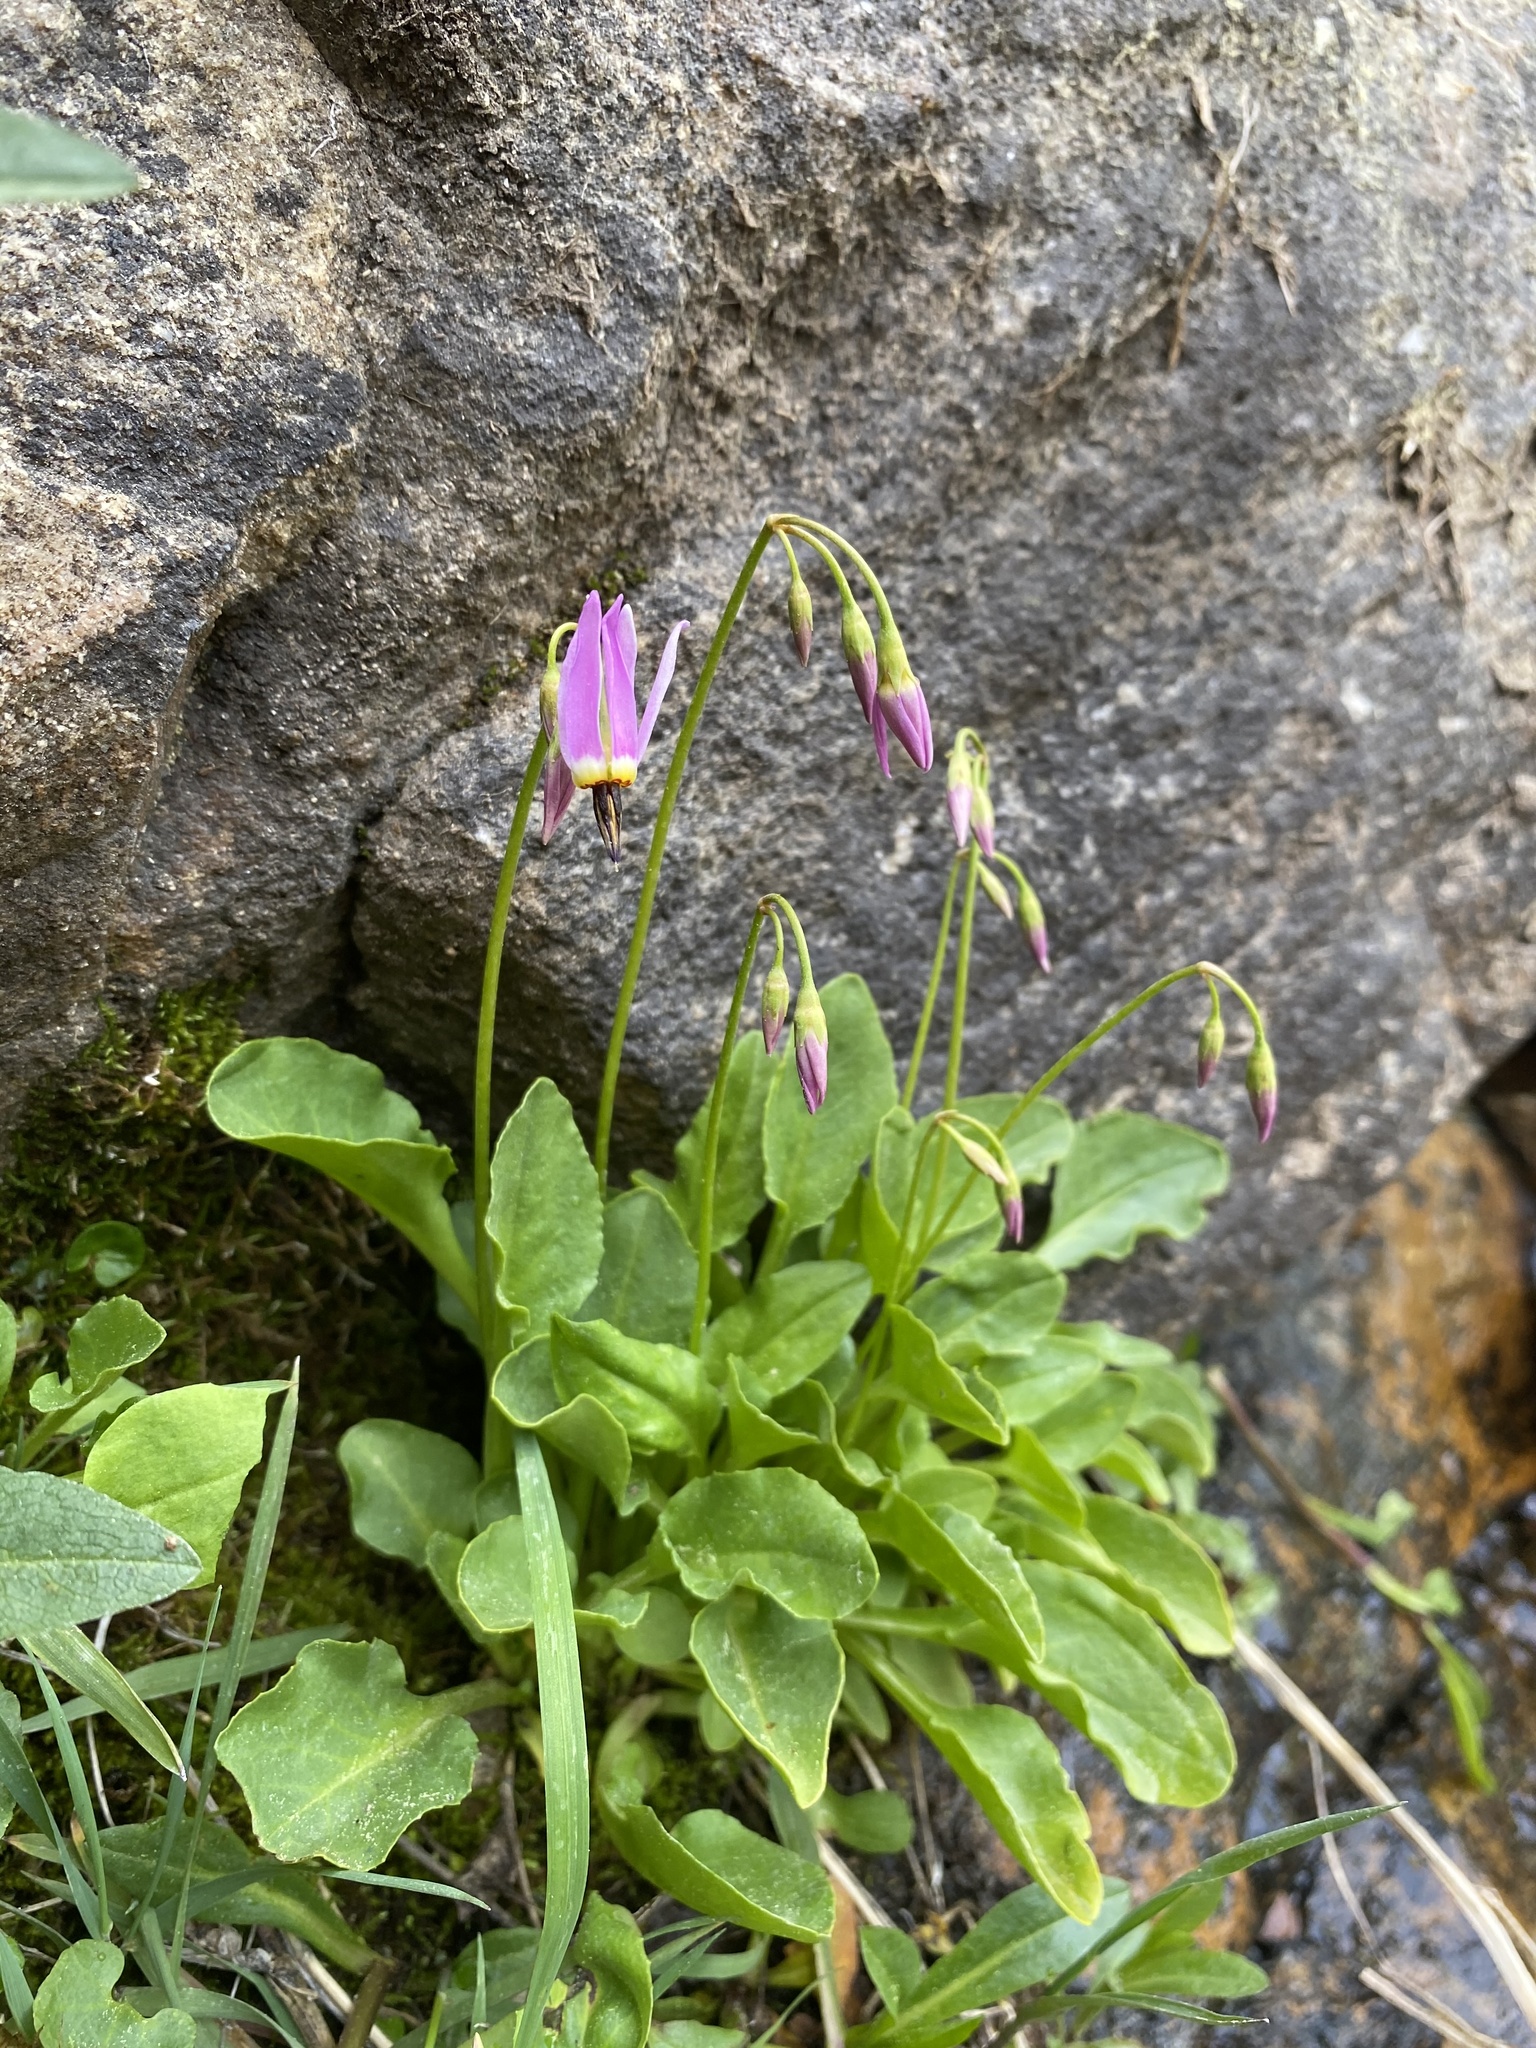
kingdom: Plantae
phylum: Tracheophyta
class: Magnoliopsida
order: Ericales
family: Primulaceae
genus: Dodecatheon
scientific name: Dodecatheon utahense
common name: Wasatch shootingstar
